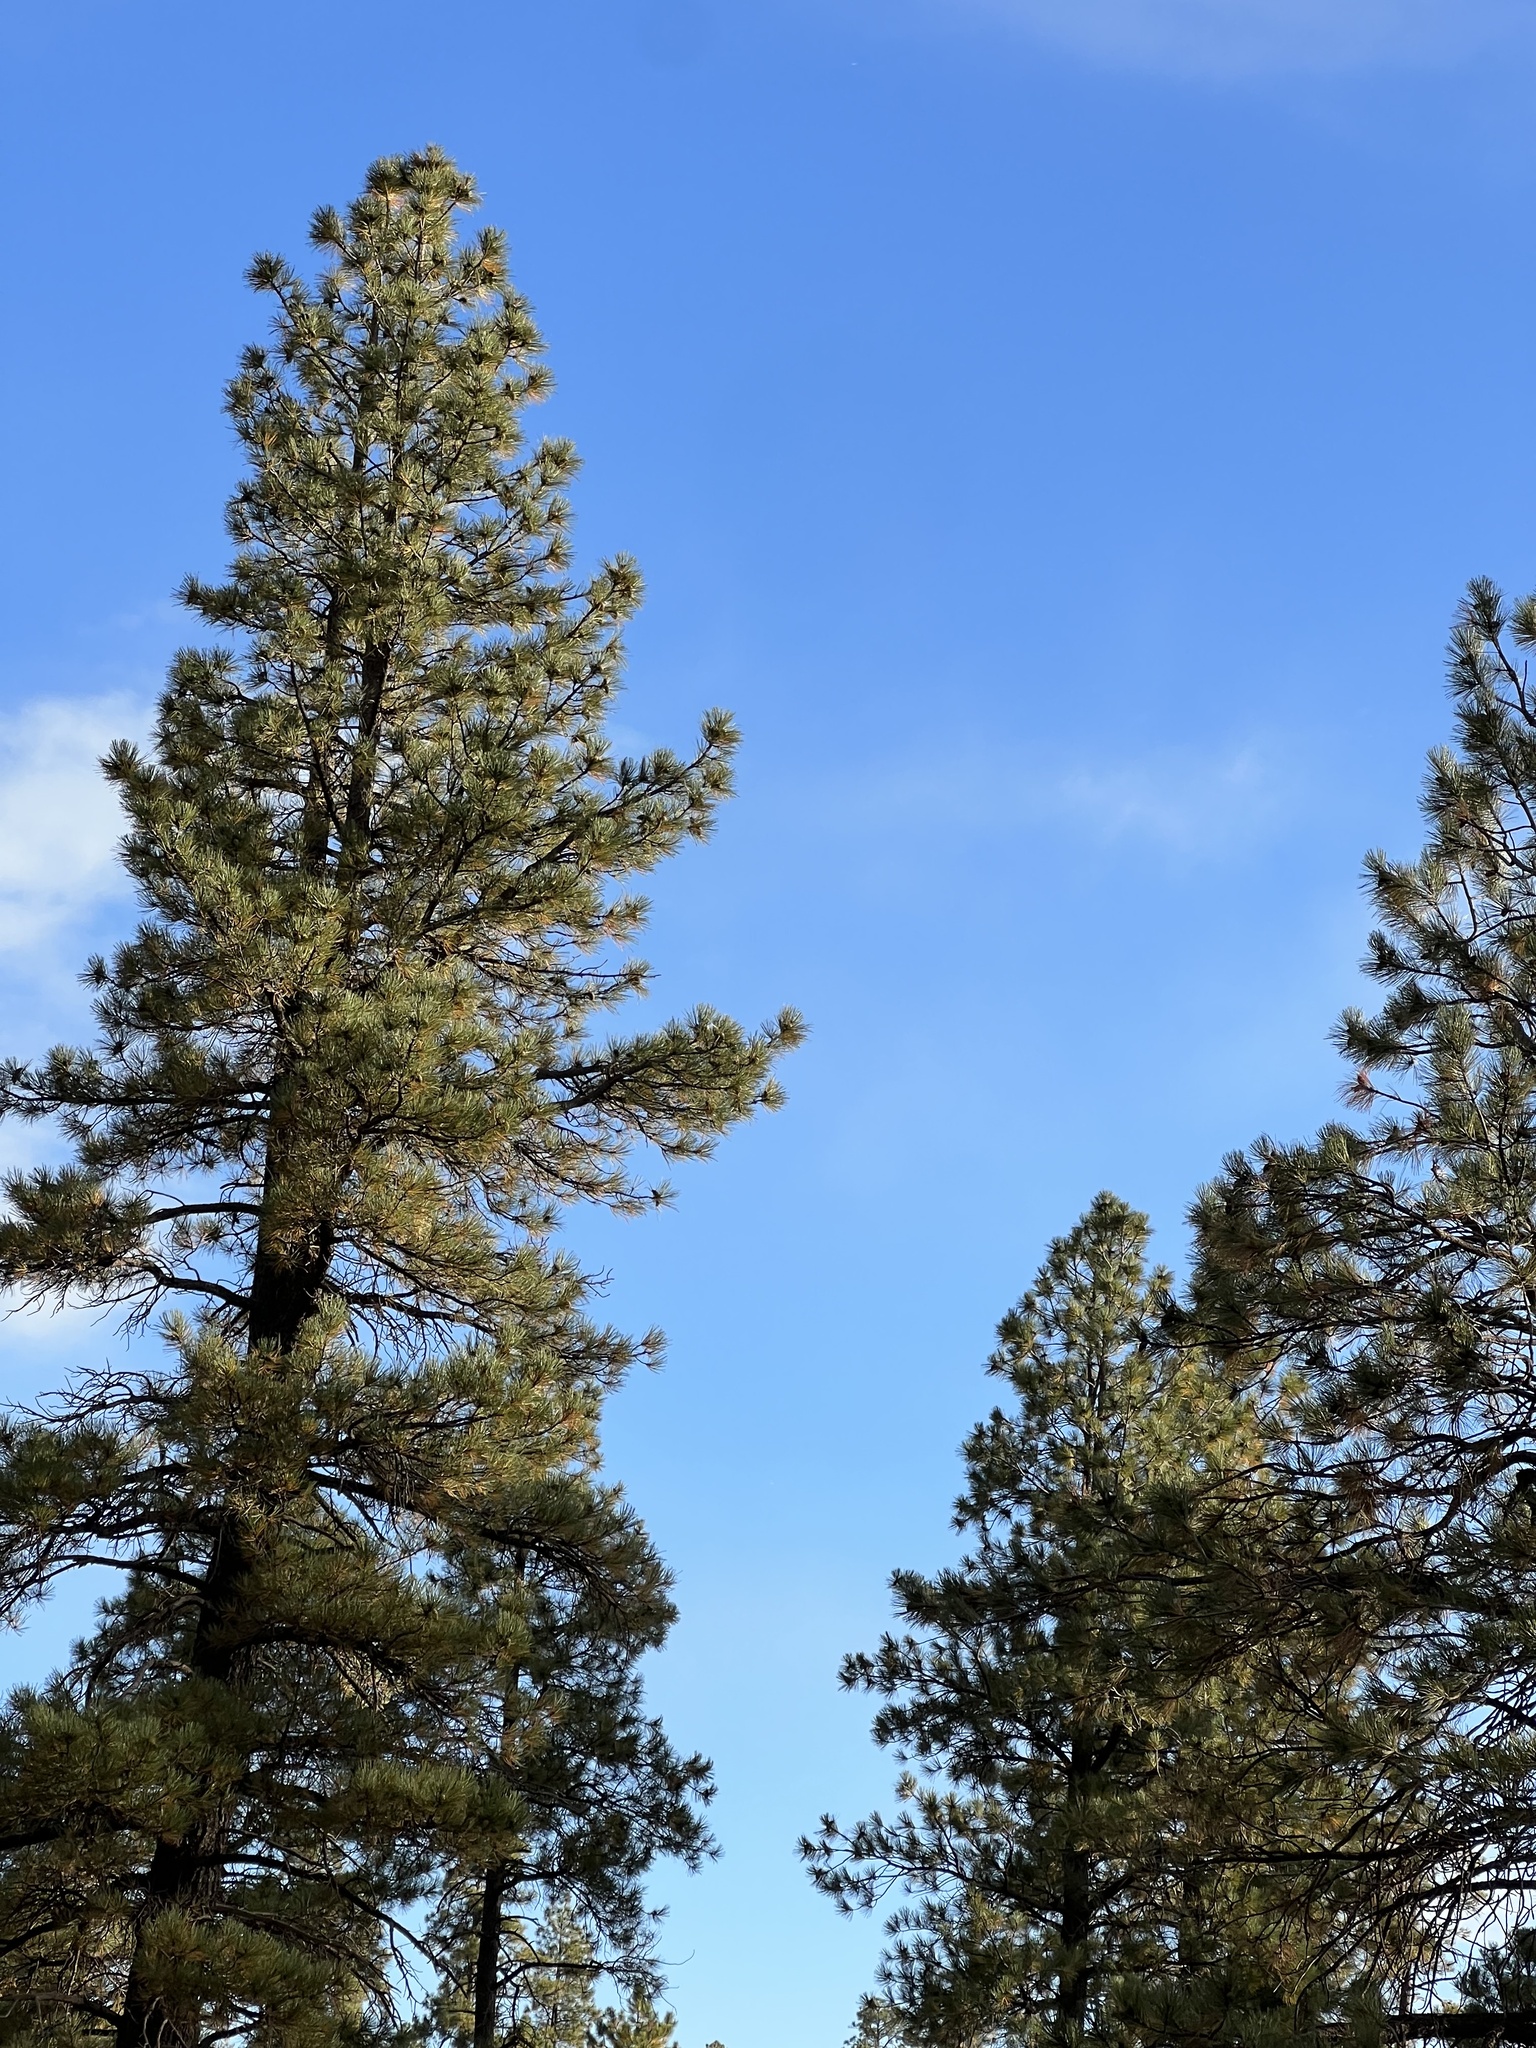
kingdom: Plantae
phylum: Tracheophyta
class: Pinopsida
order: Pinales
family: Pinaceae
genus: Pinus
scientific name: Pinus ponderosa
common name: Western yellow-pine
